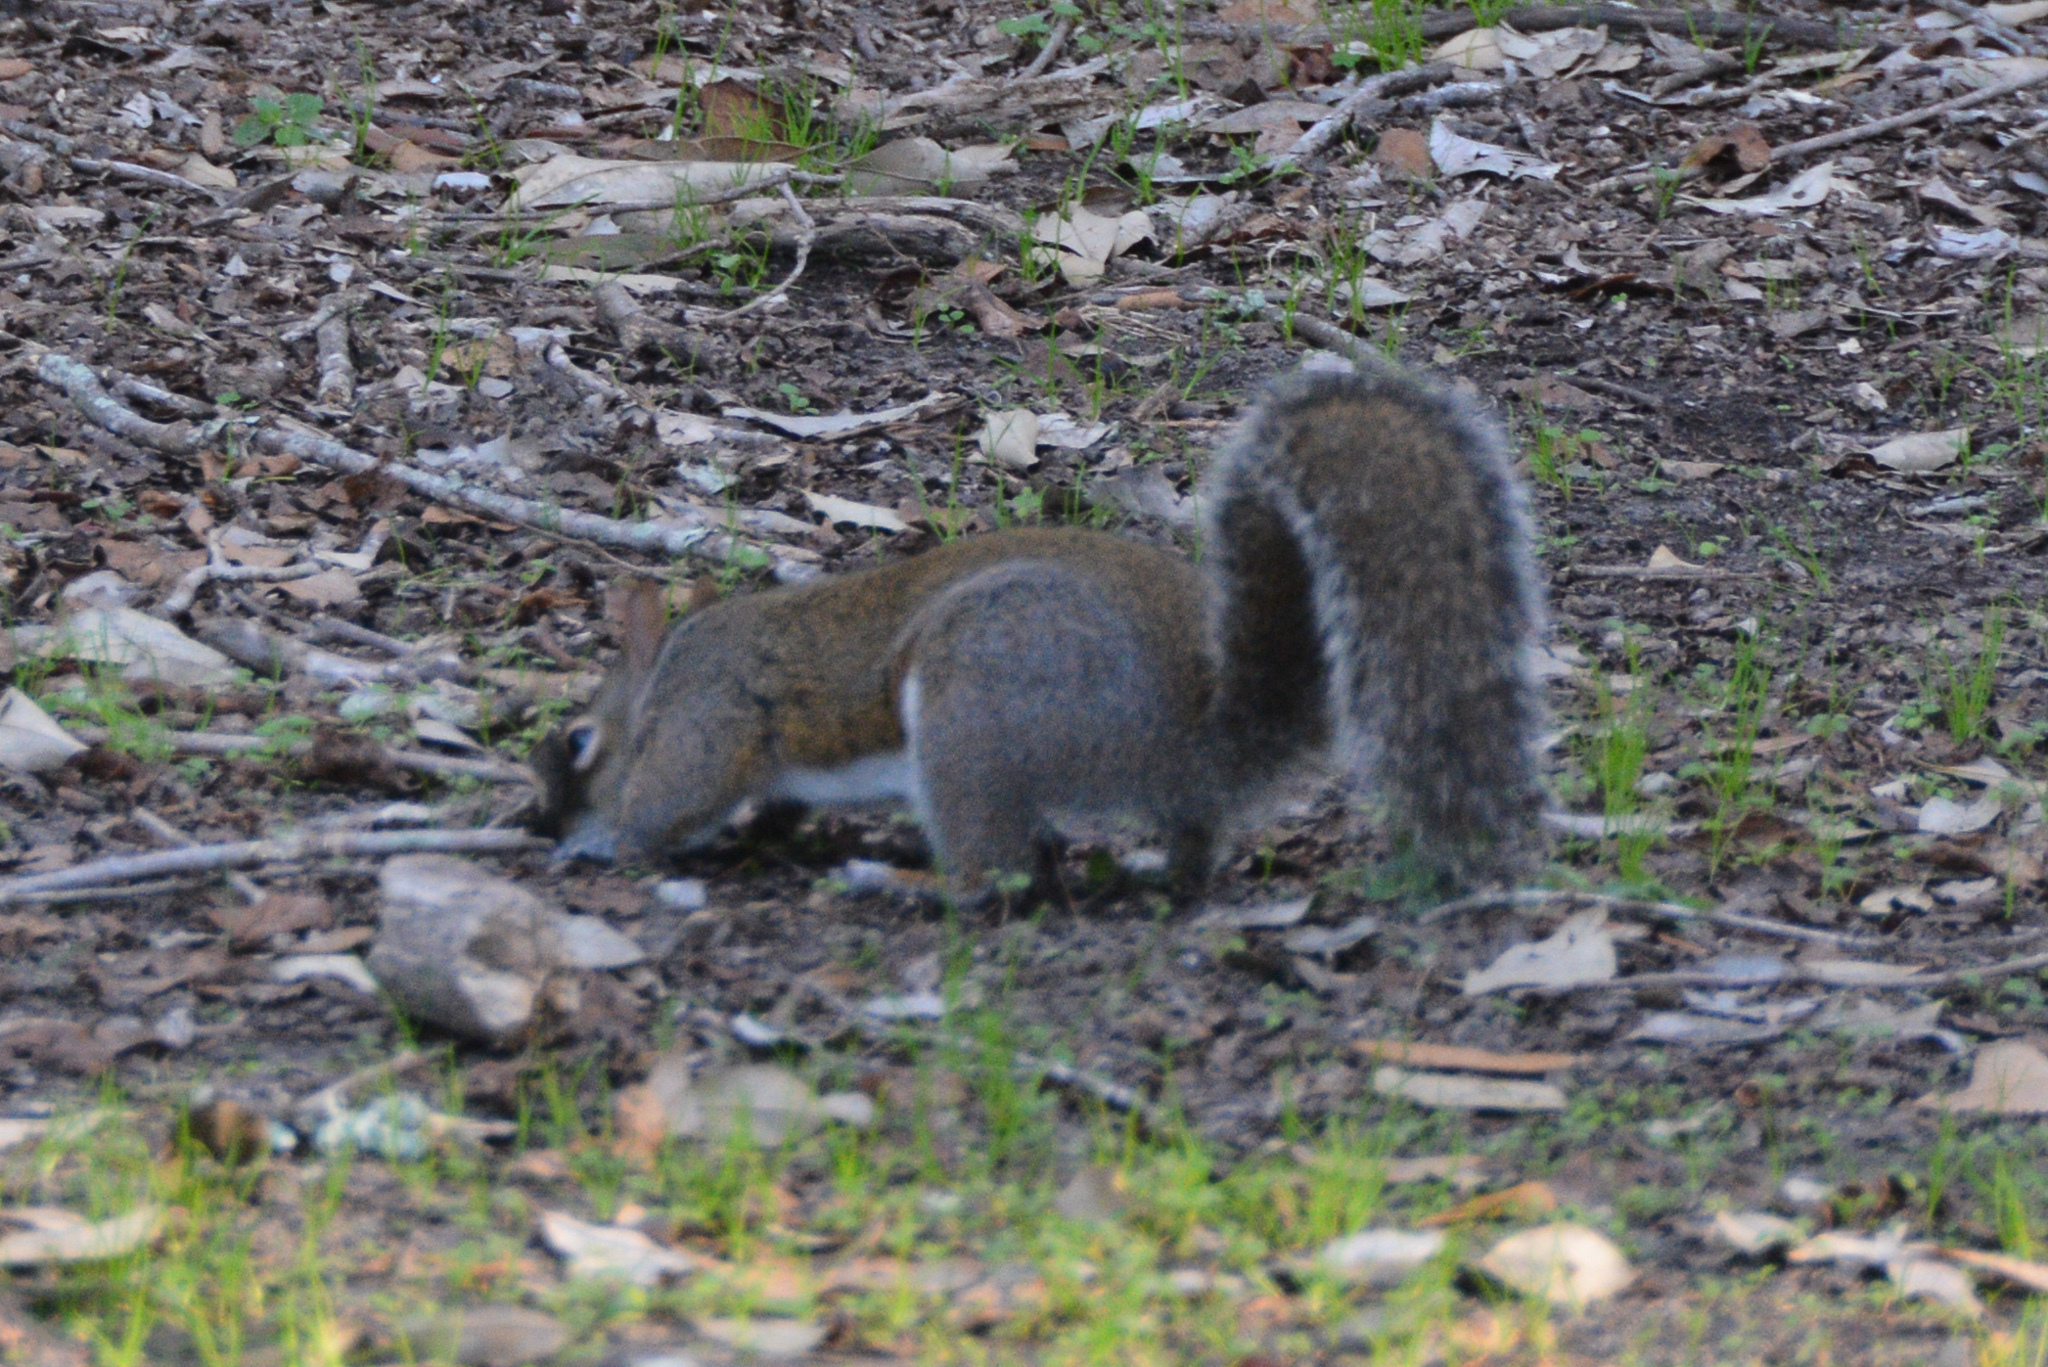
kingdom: Animalia
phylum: Chordata
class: Mammalia
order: Rodentia
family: Sciuridae
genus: Sciurus
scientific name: Sciurus carolinensis
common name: Eastern gray squirrel
